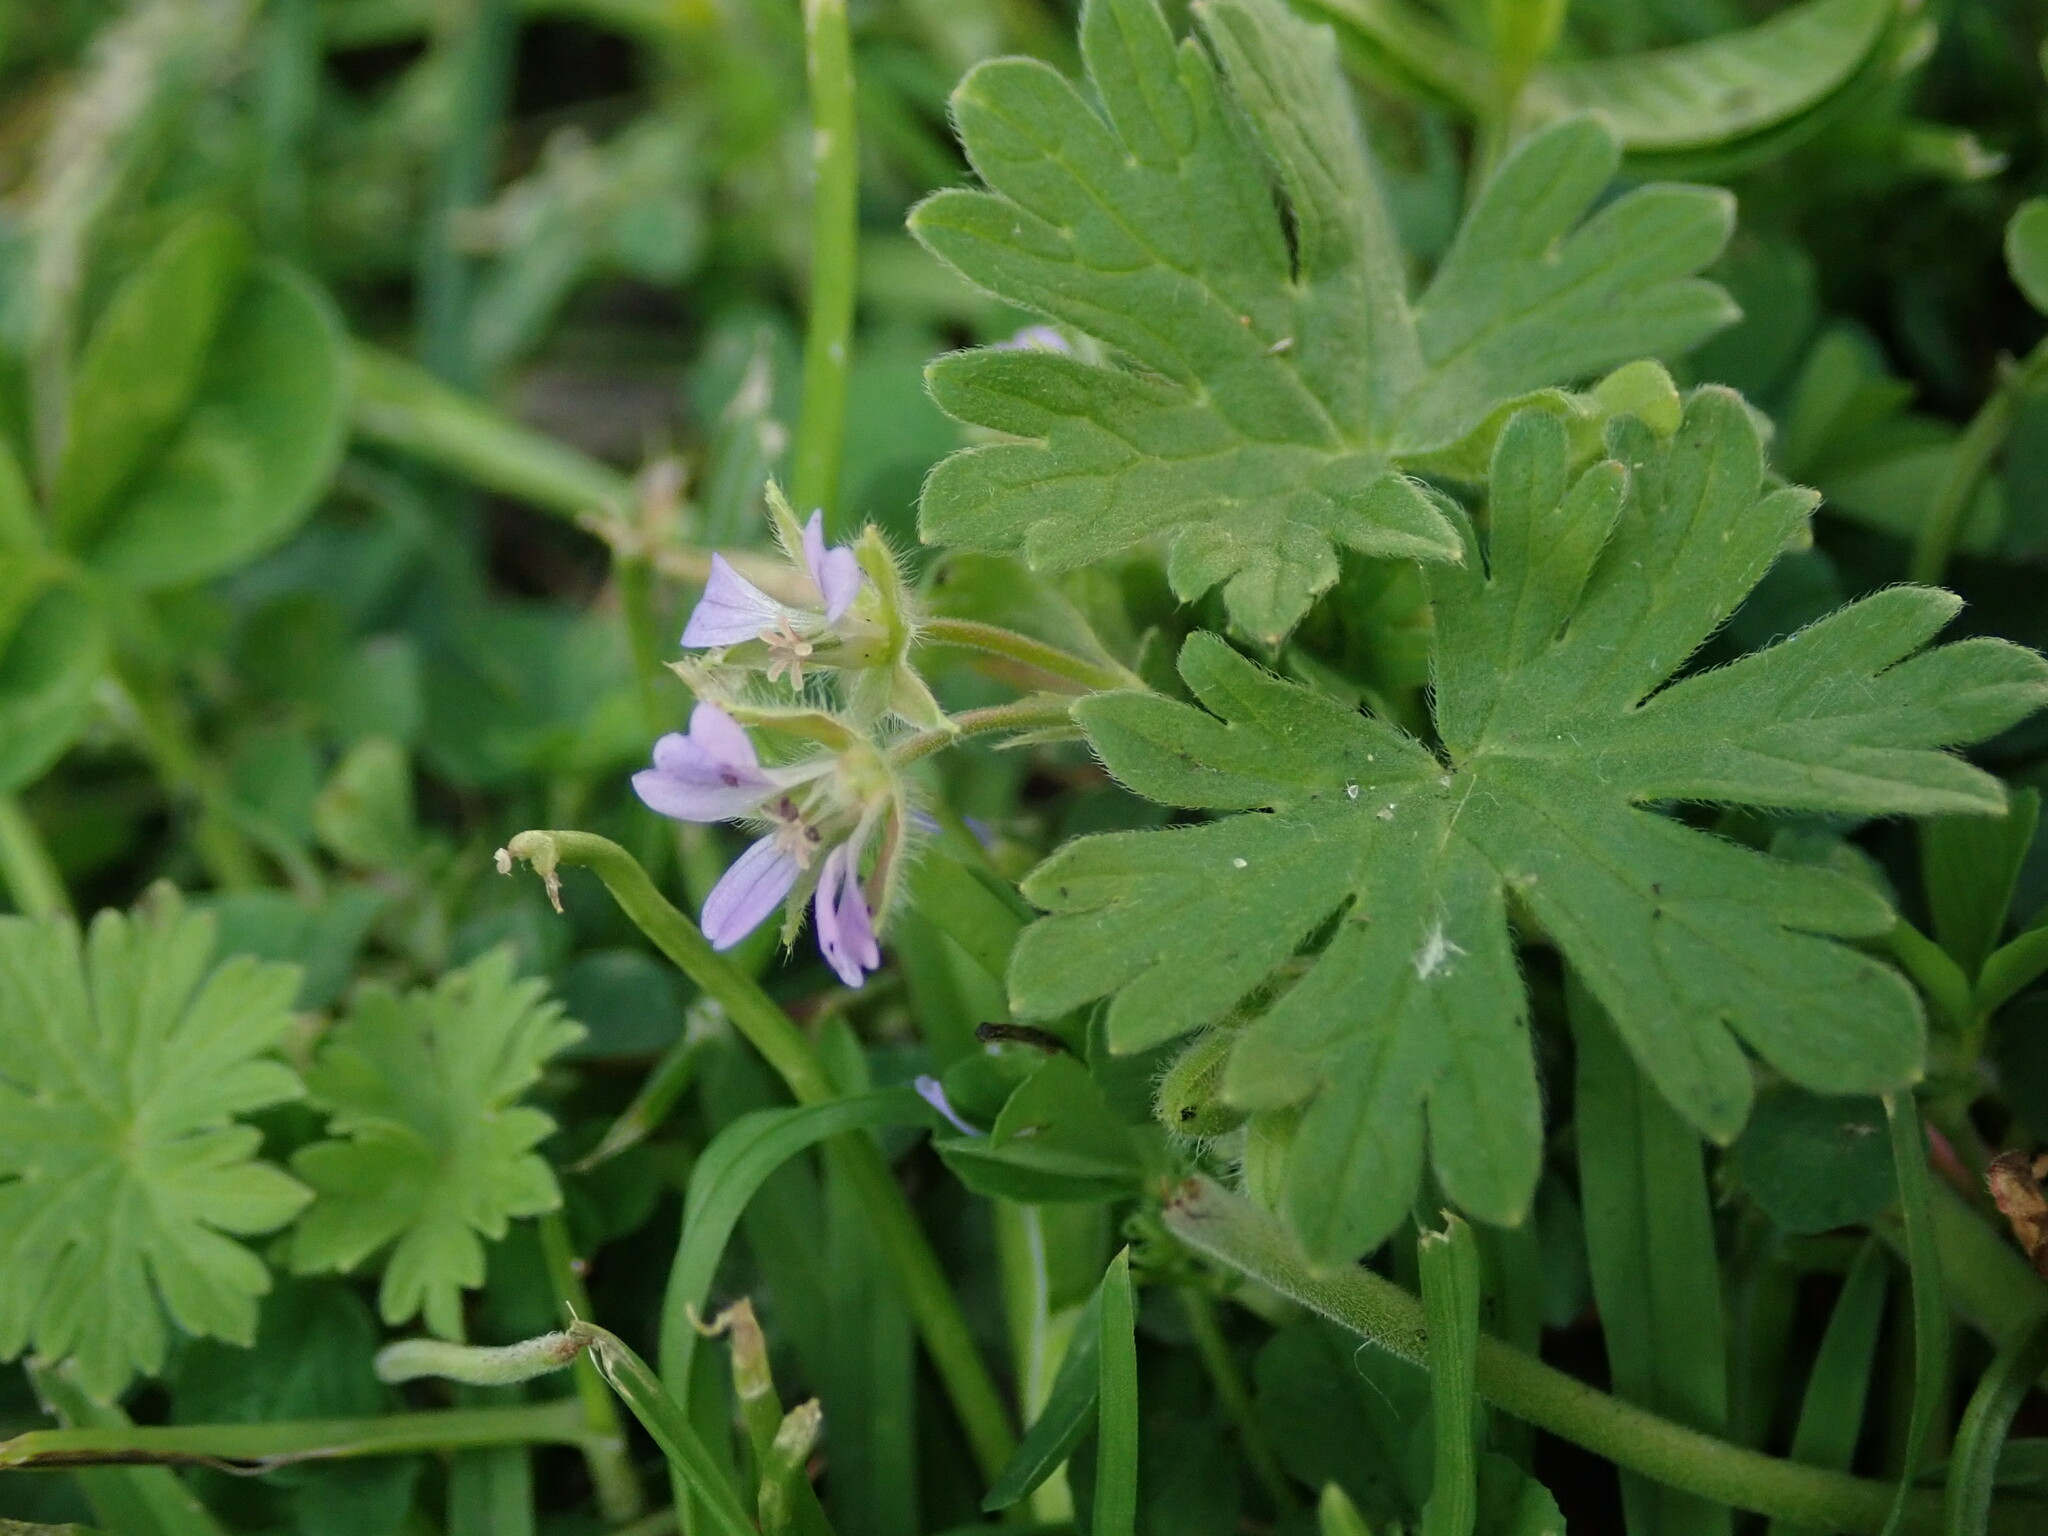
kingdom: Plantae
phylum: Tracheophyta
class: Magnoliopsida
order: Geraniales
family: Geraniaceae
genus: Geranium
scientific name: Geranium pusillum
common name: Small geranium
